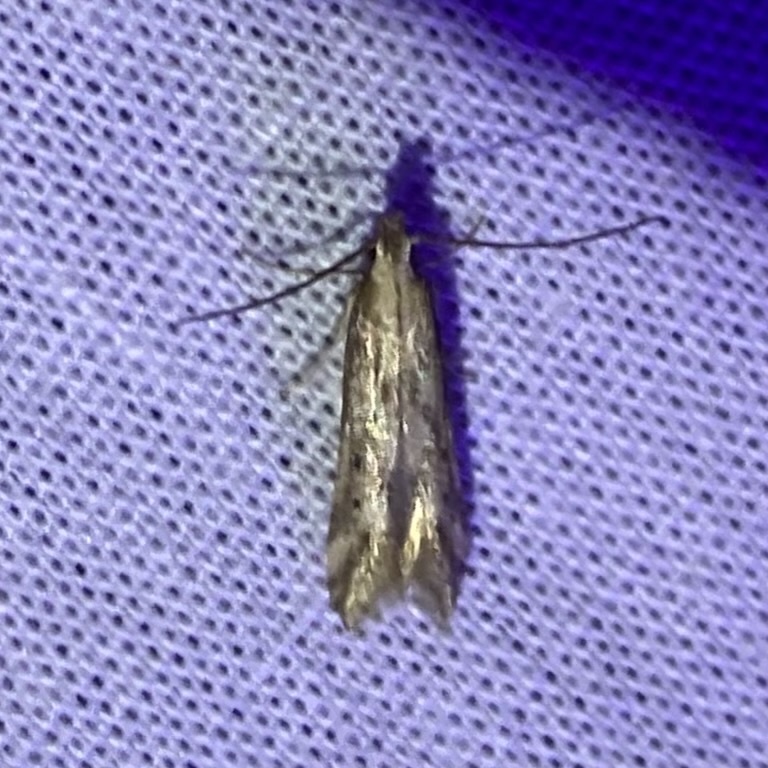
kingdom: Animalia
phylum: Arthropoda
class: Insecta
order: Lepidoptera
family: Gelechiidae
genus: Metzneria
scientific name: Metzneria lappella
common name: Burdock neb
